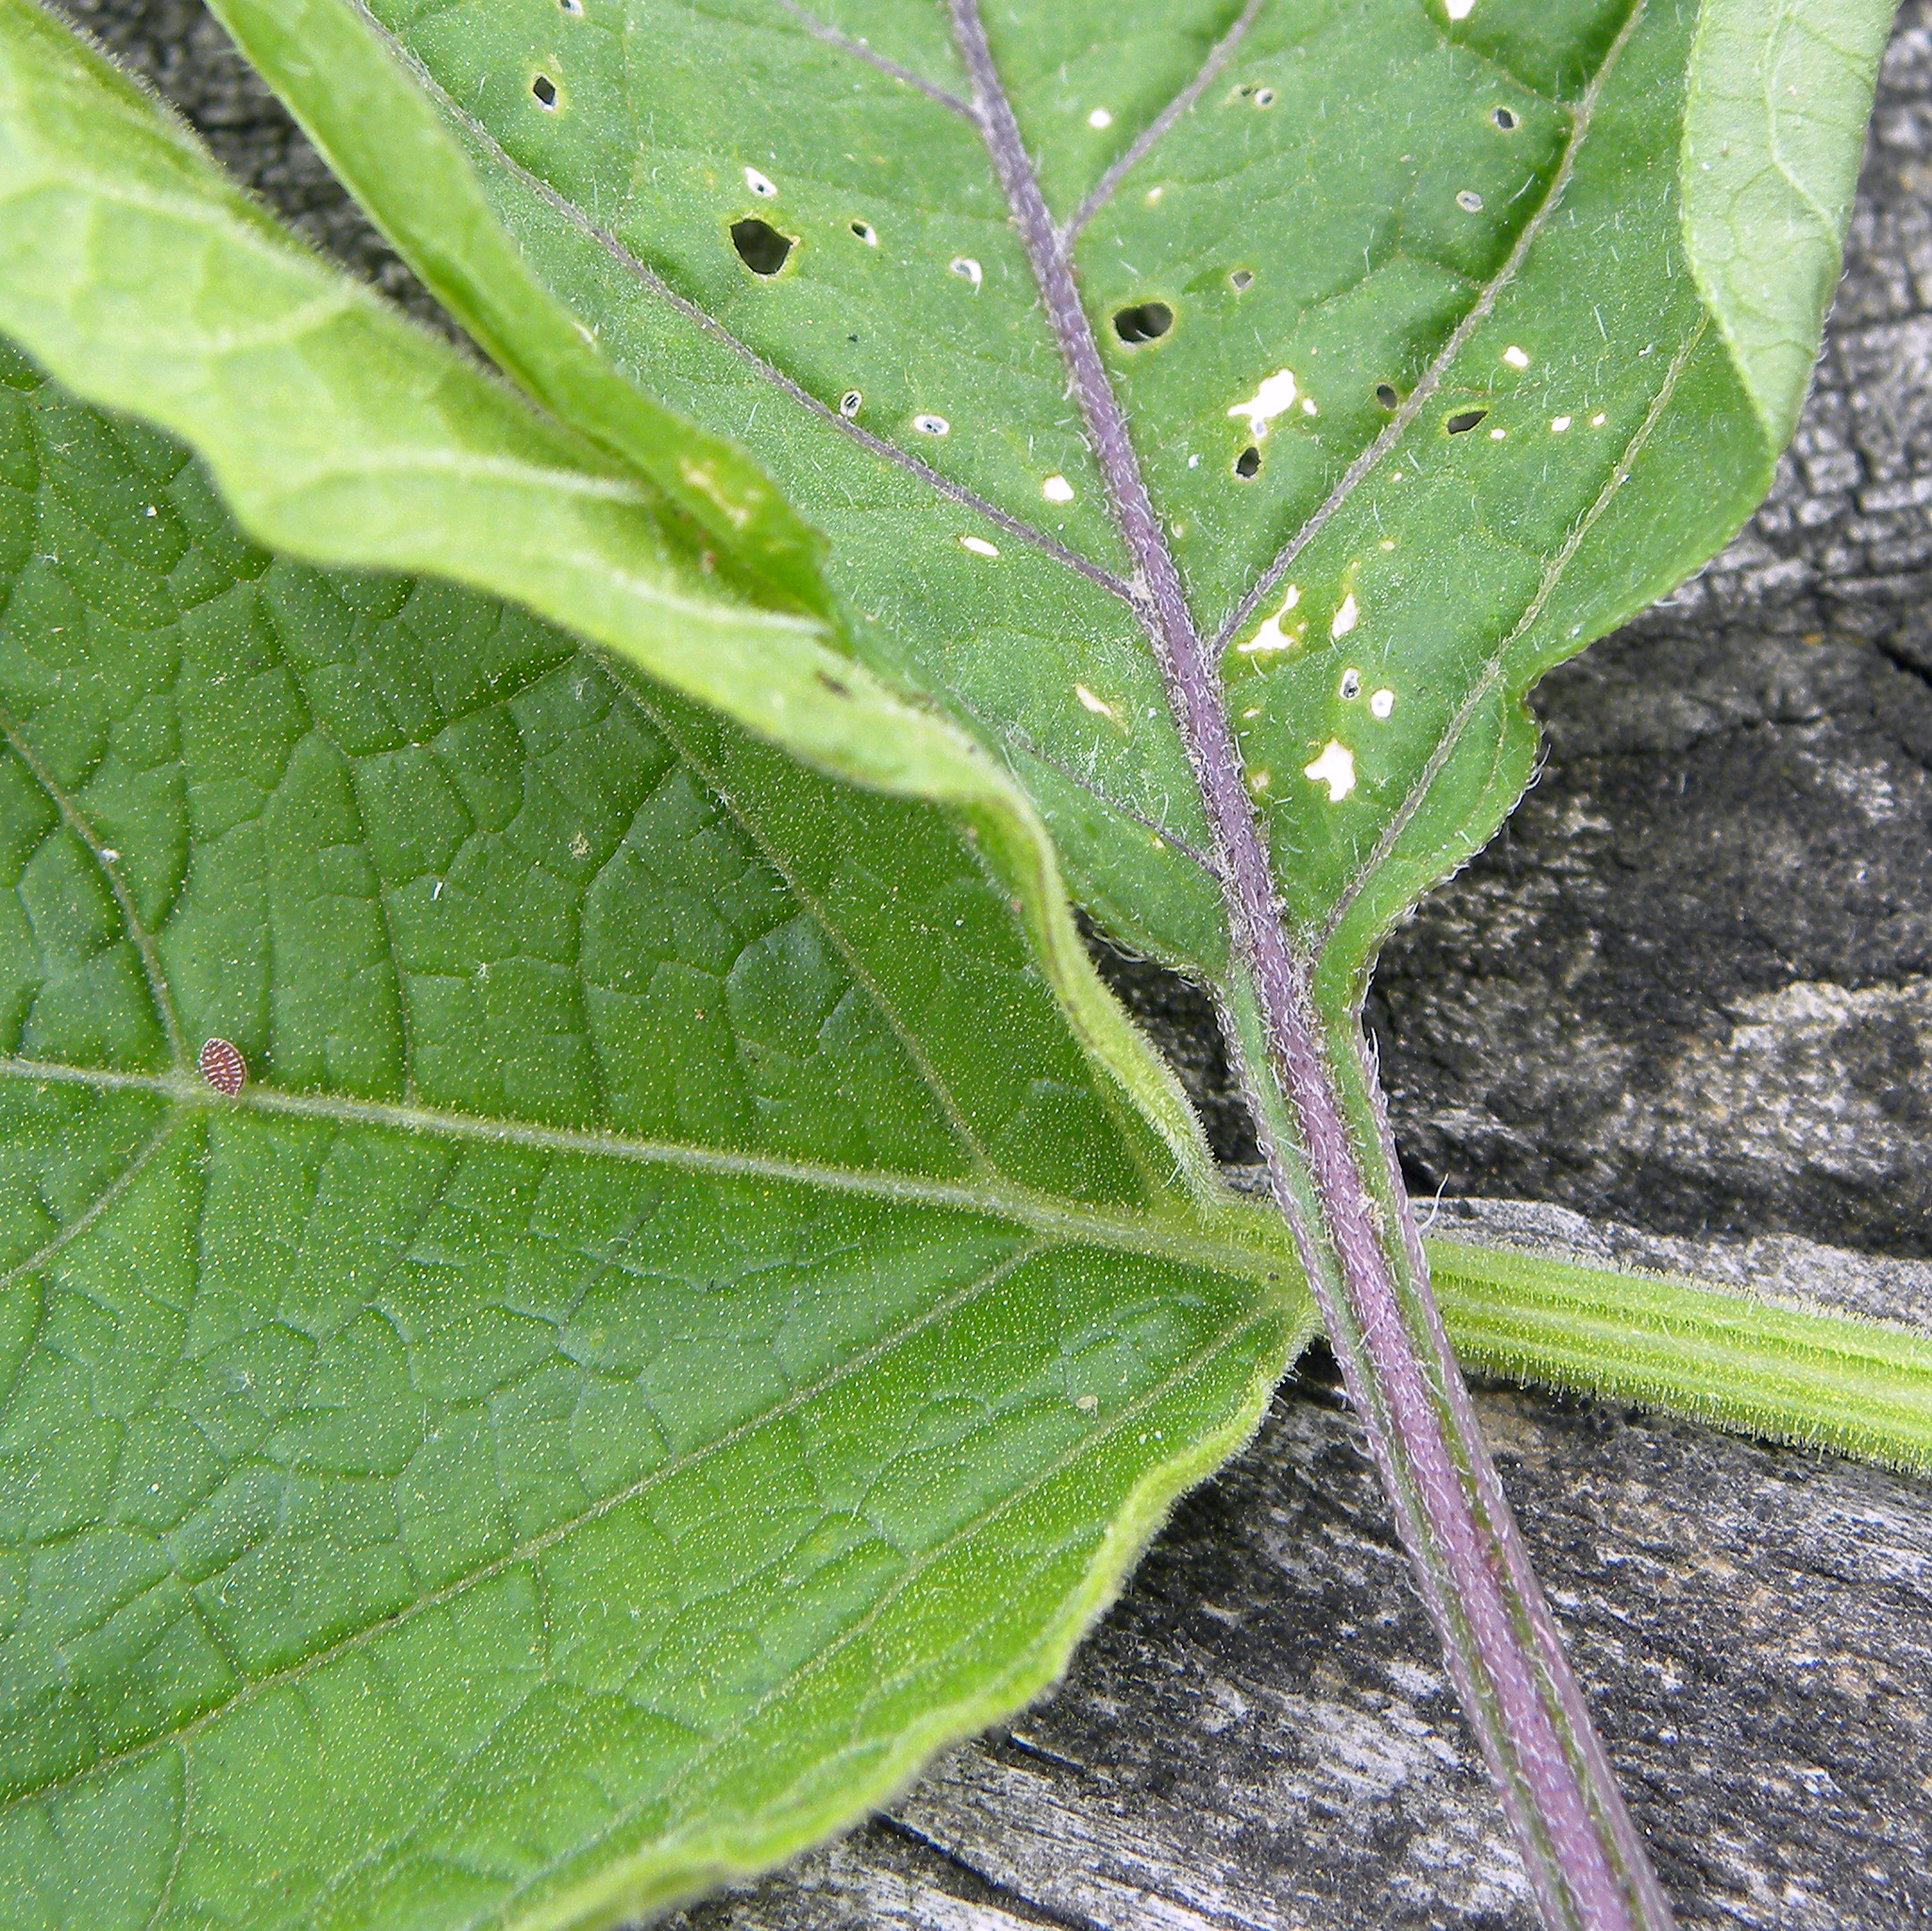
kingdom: Plantae
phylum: Tracheophyta
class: Magnoliopsida
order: Solanales
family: Solanaceae
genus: Physalis
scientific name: Physalis longifolia
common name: Common ground-cherry
